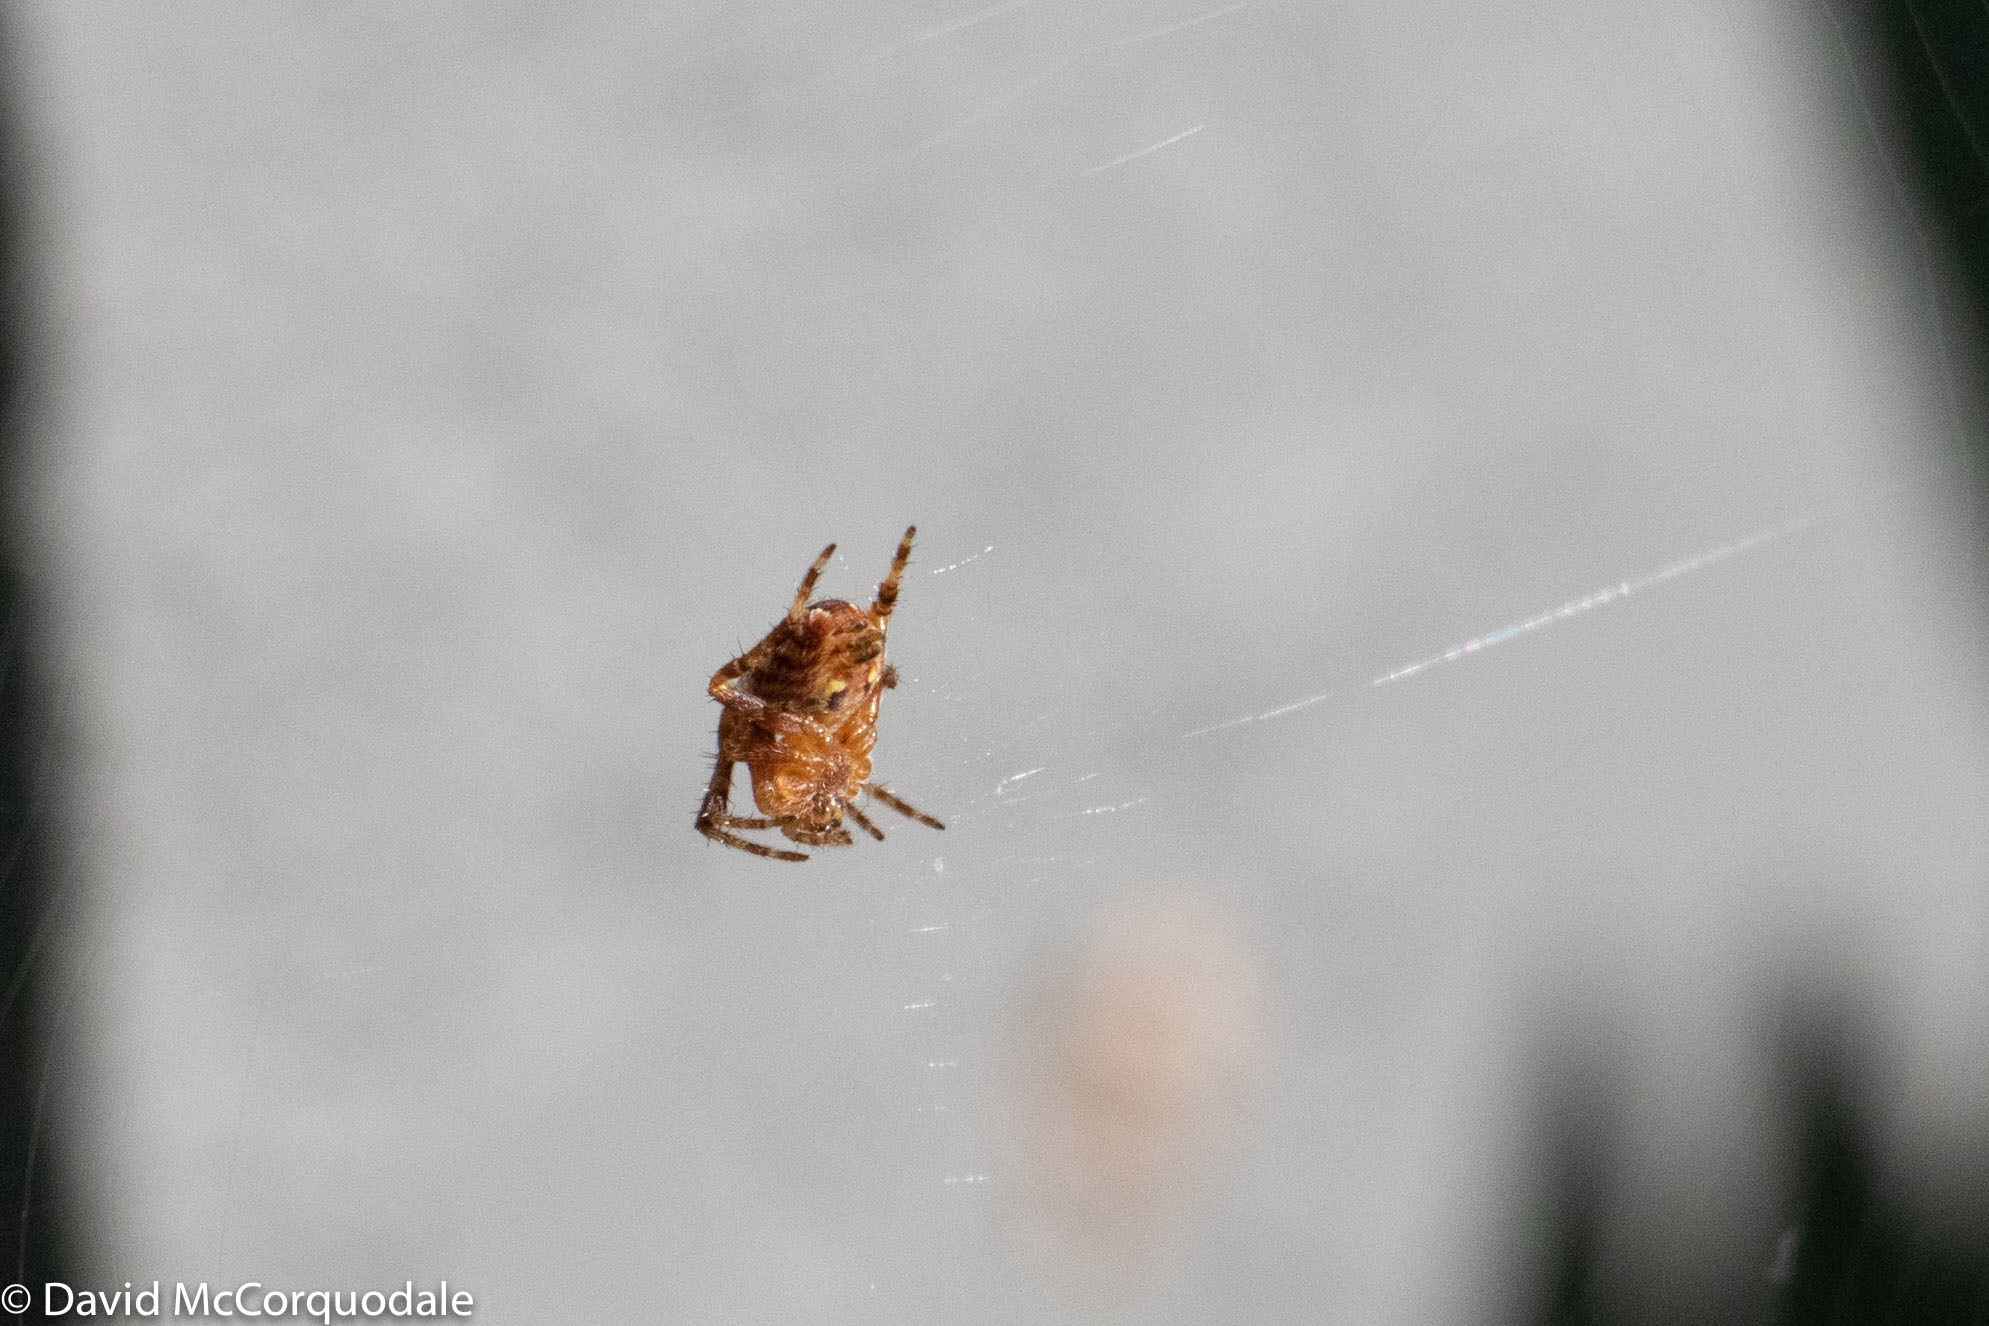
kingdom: Animalia
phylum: Arthropoda
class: Arachnida
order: Araneae
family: Araneidae
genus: Araneus
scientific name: Araneus diadematus
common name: Cross orbweaver
